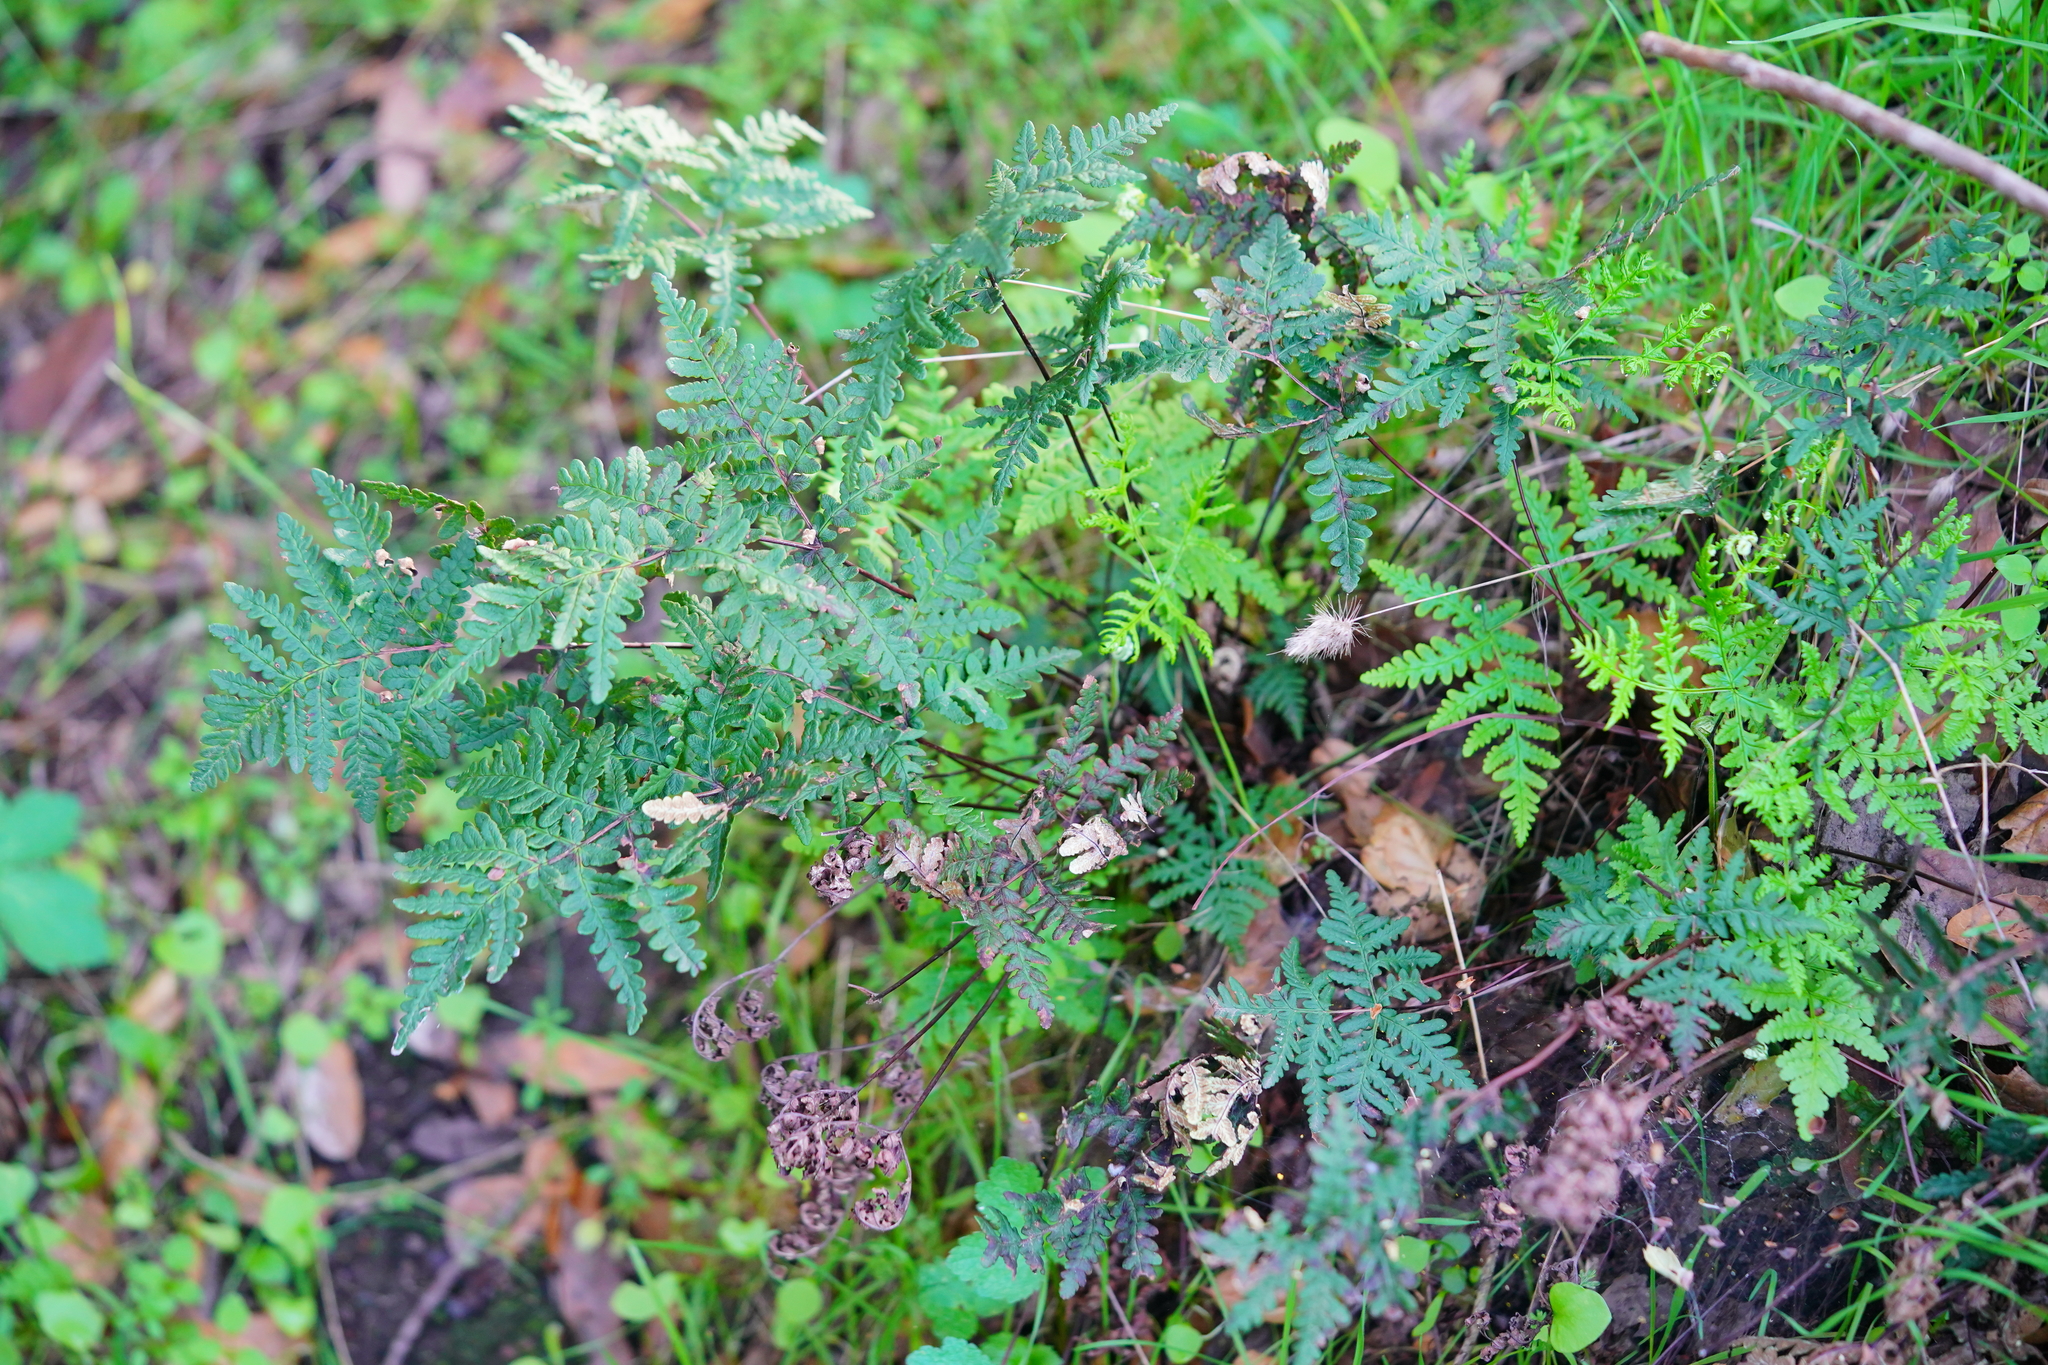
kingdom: Plantae
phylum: Tracheophyta
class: Polypodiopsida
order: Polypodiales
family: Pteridaceae
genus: Pentagramma
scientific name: Pentagramma triangularis
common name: Gold fern
